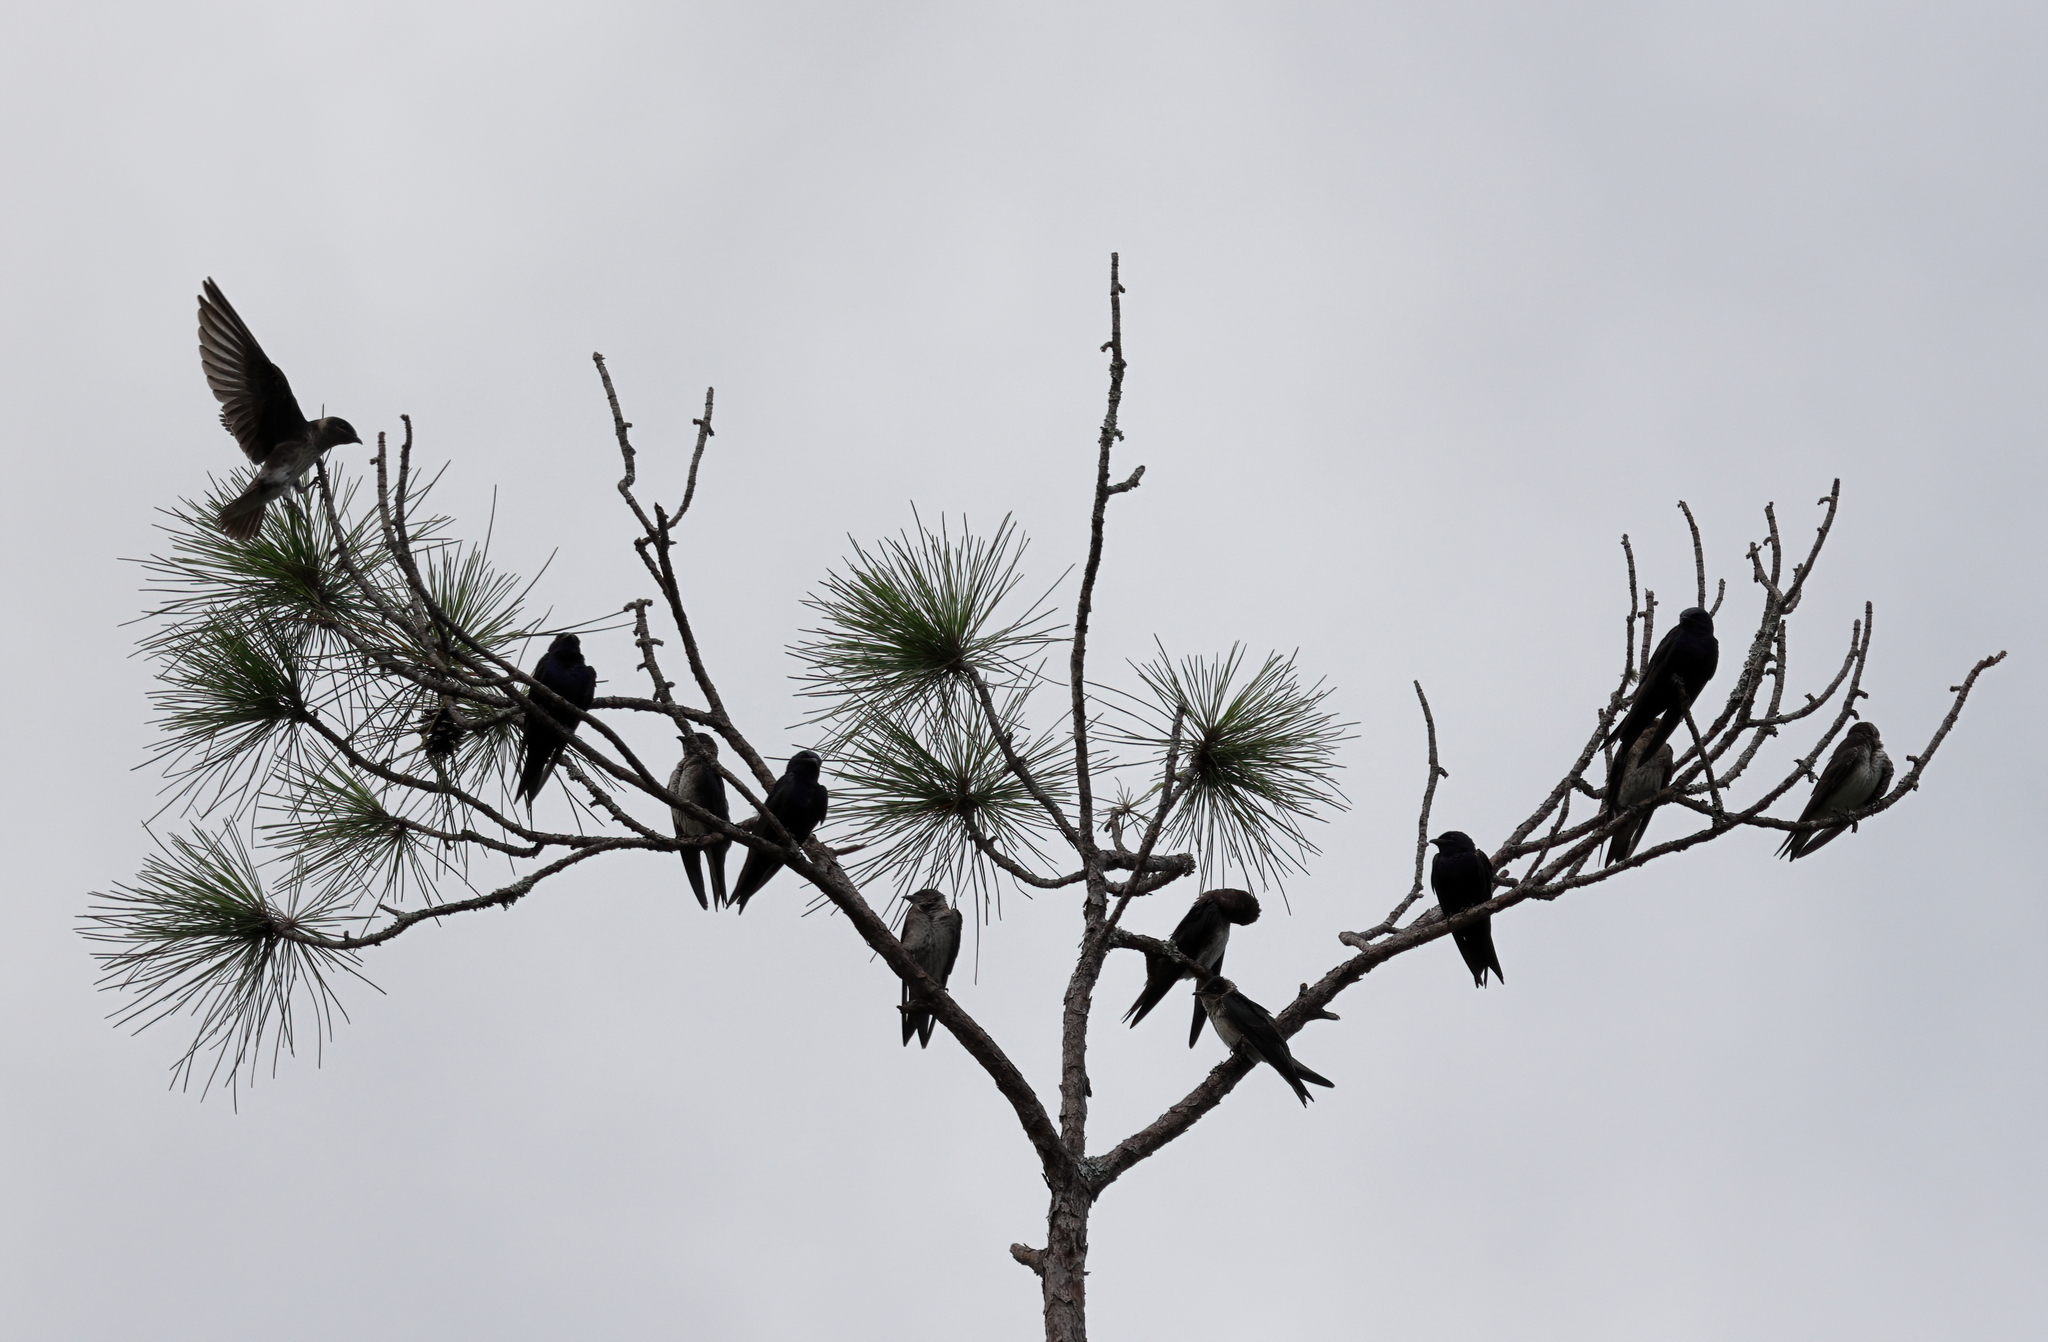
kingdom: Animalia
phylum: Chordata
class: Aves
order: Passeriformes
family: Hirundinidae
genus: Progne
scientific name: Progne subis
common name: Purple martin
